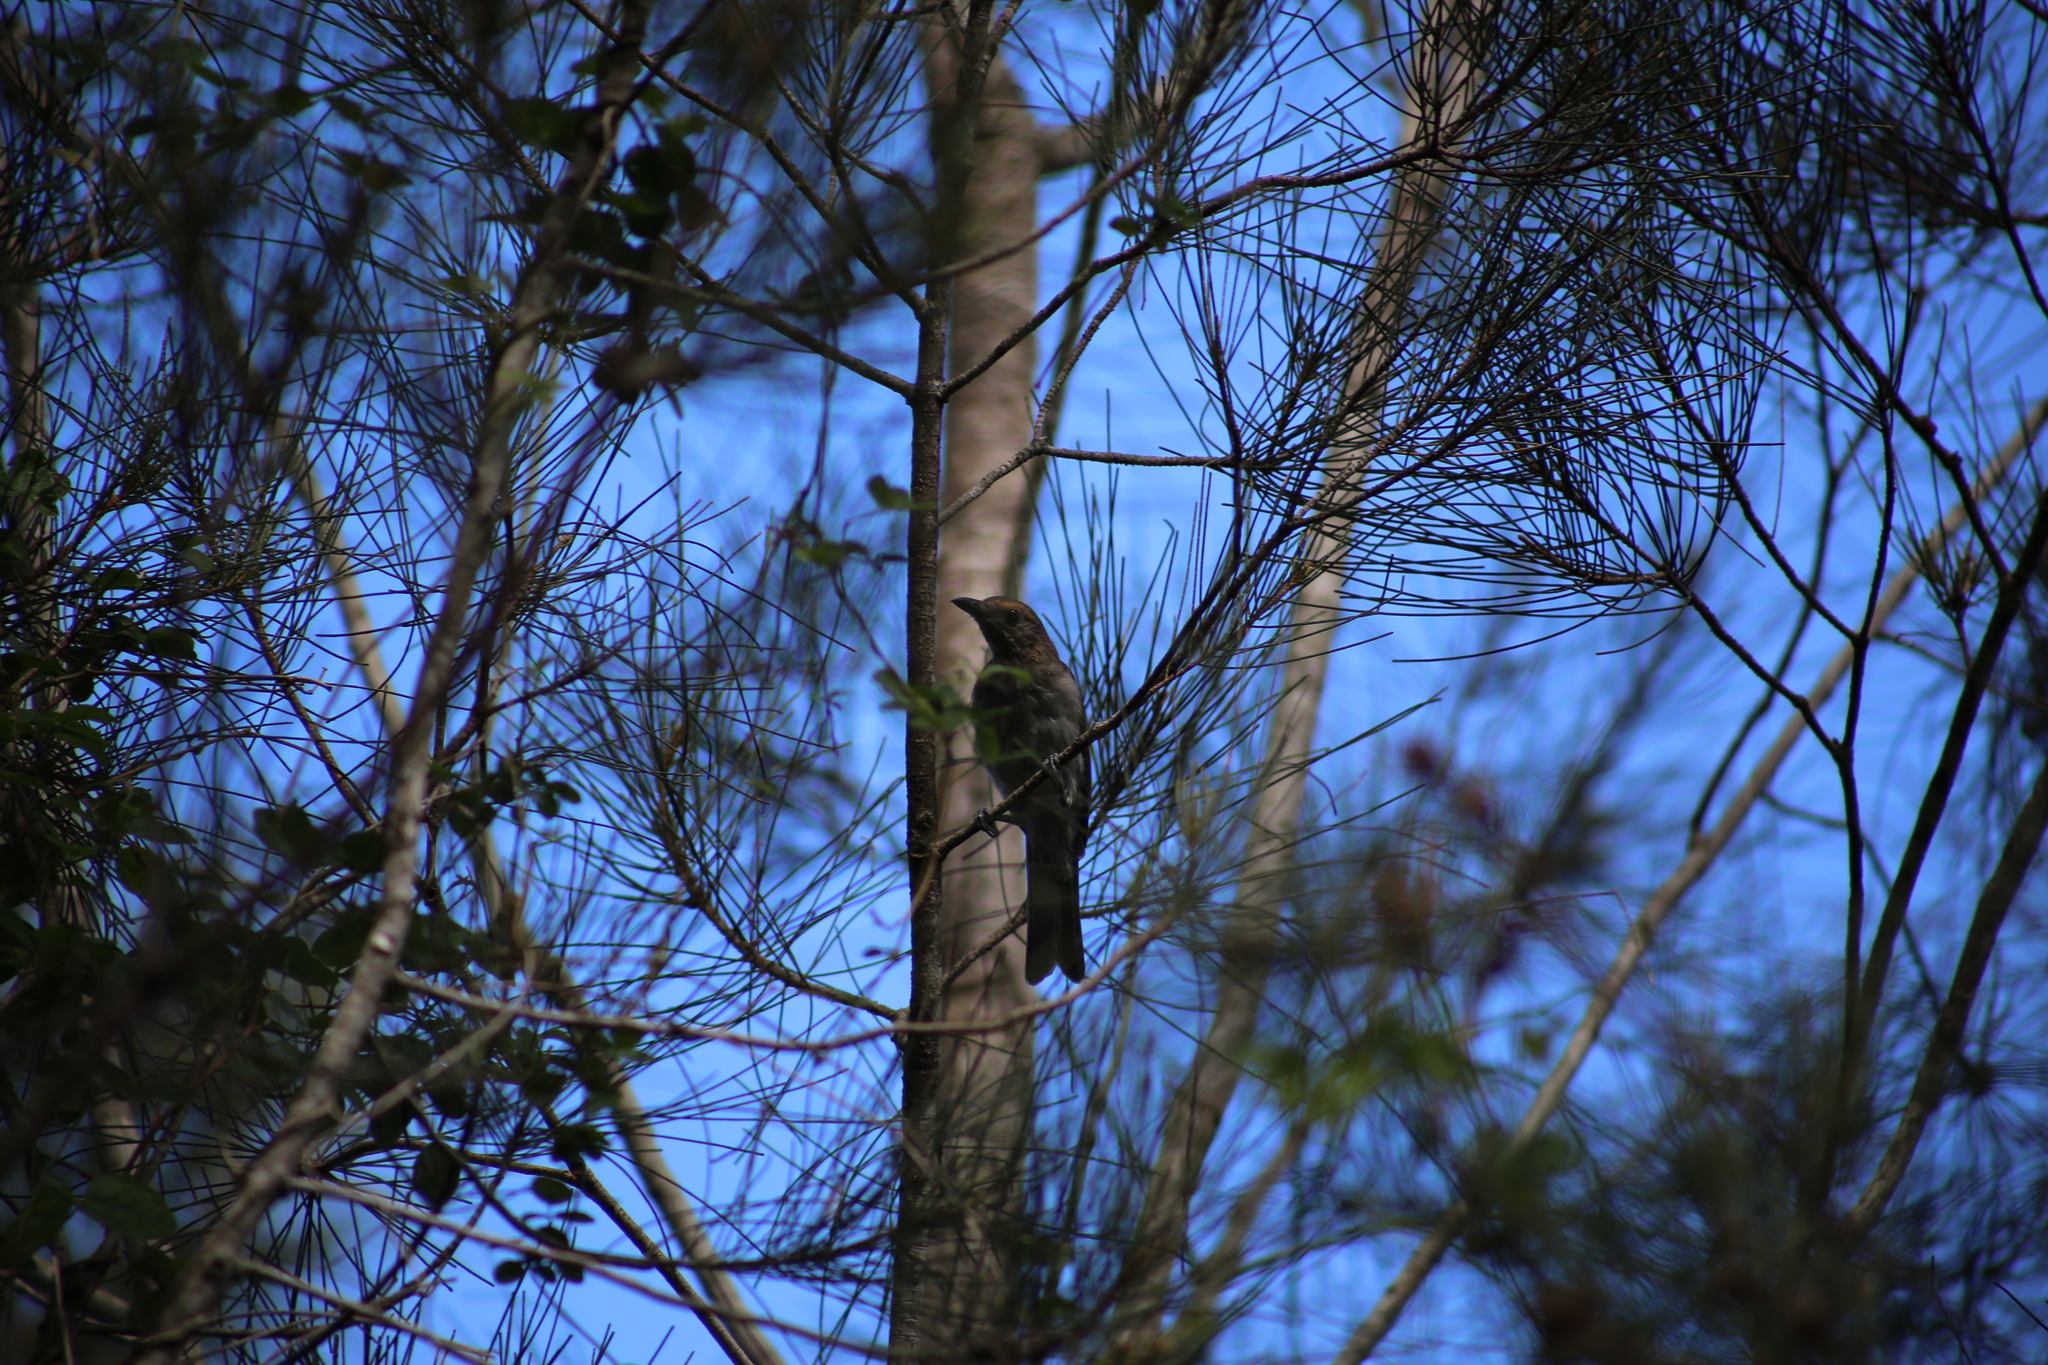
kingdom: Animalia
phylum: Chordata
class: Aves
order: Passeriformes
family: Pachycephalidae
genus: Colluricincla
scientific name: Colluricincla harmonica
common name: Grey shrikethrush
